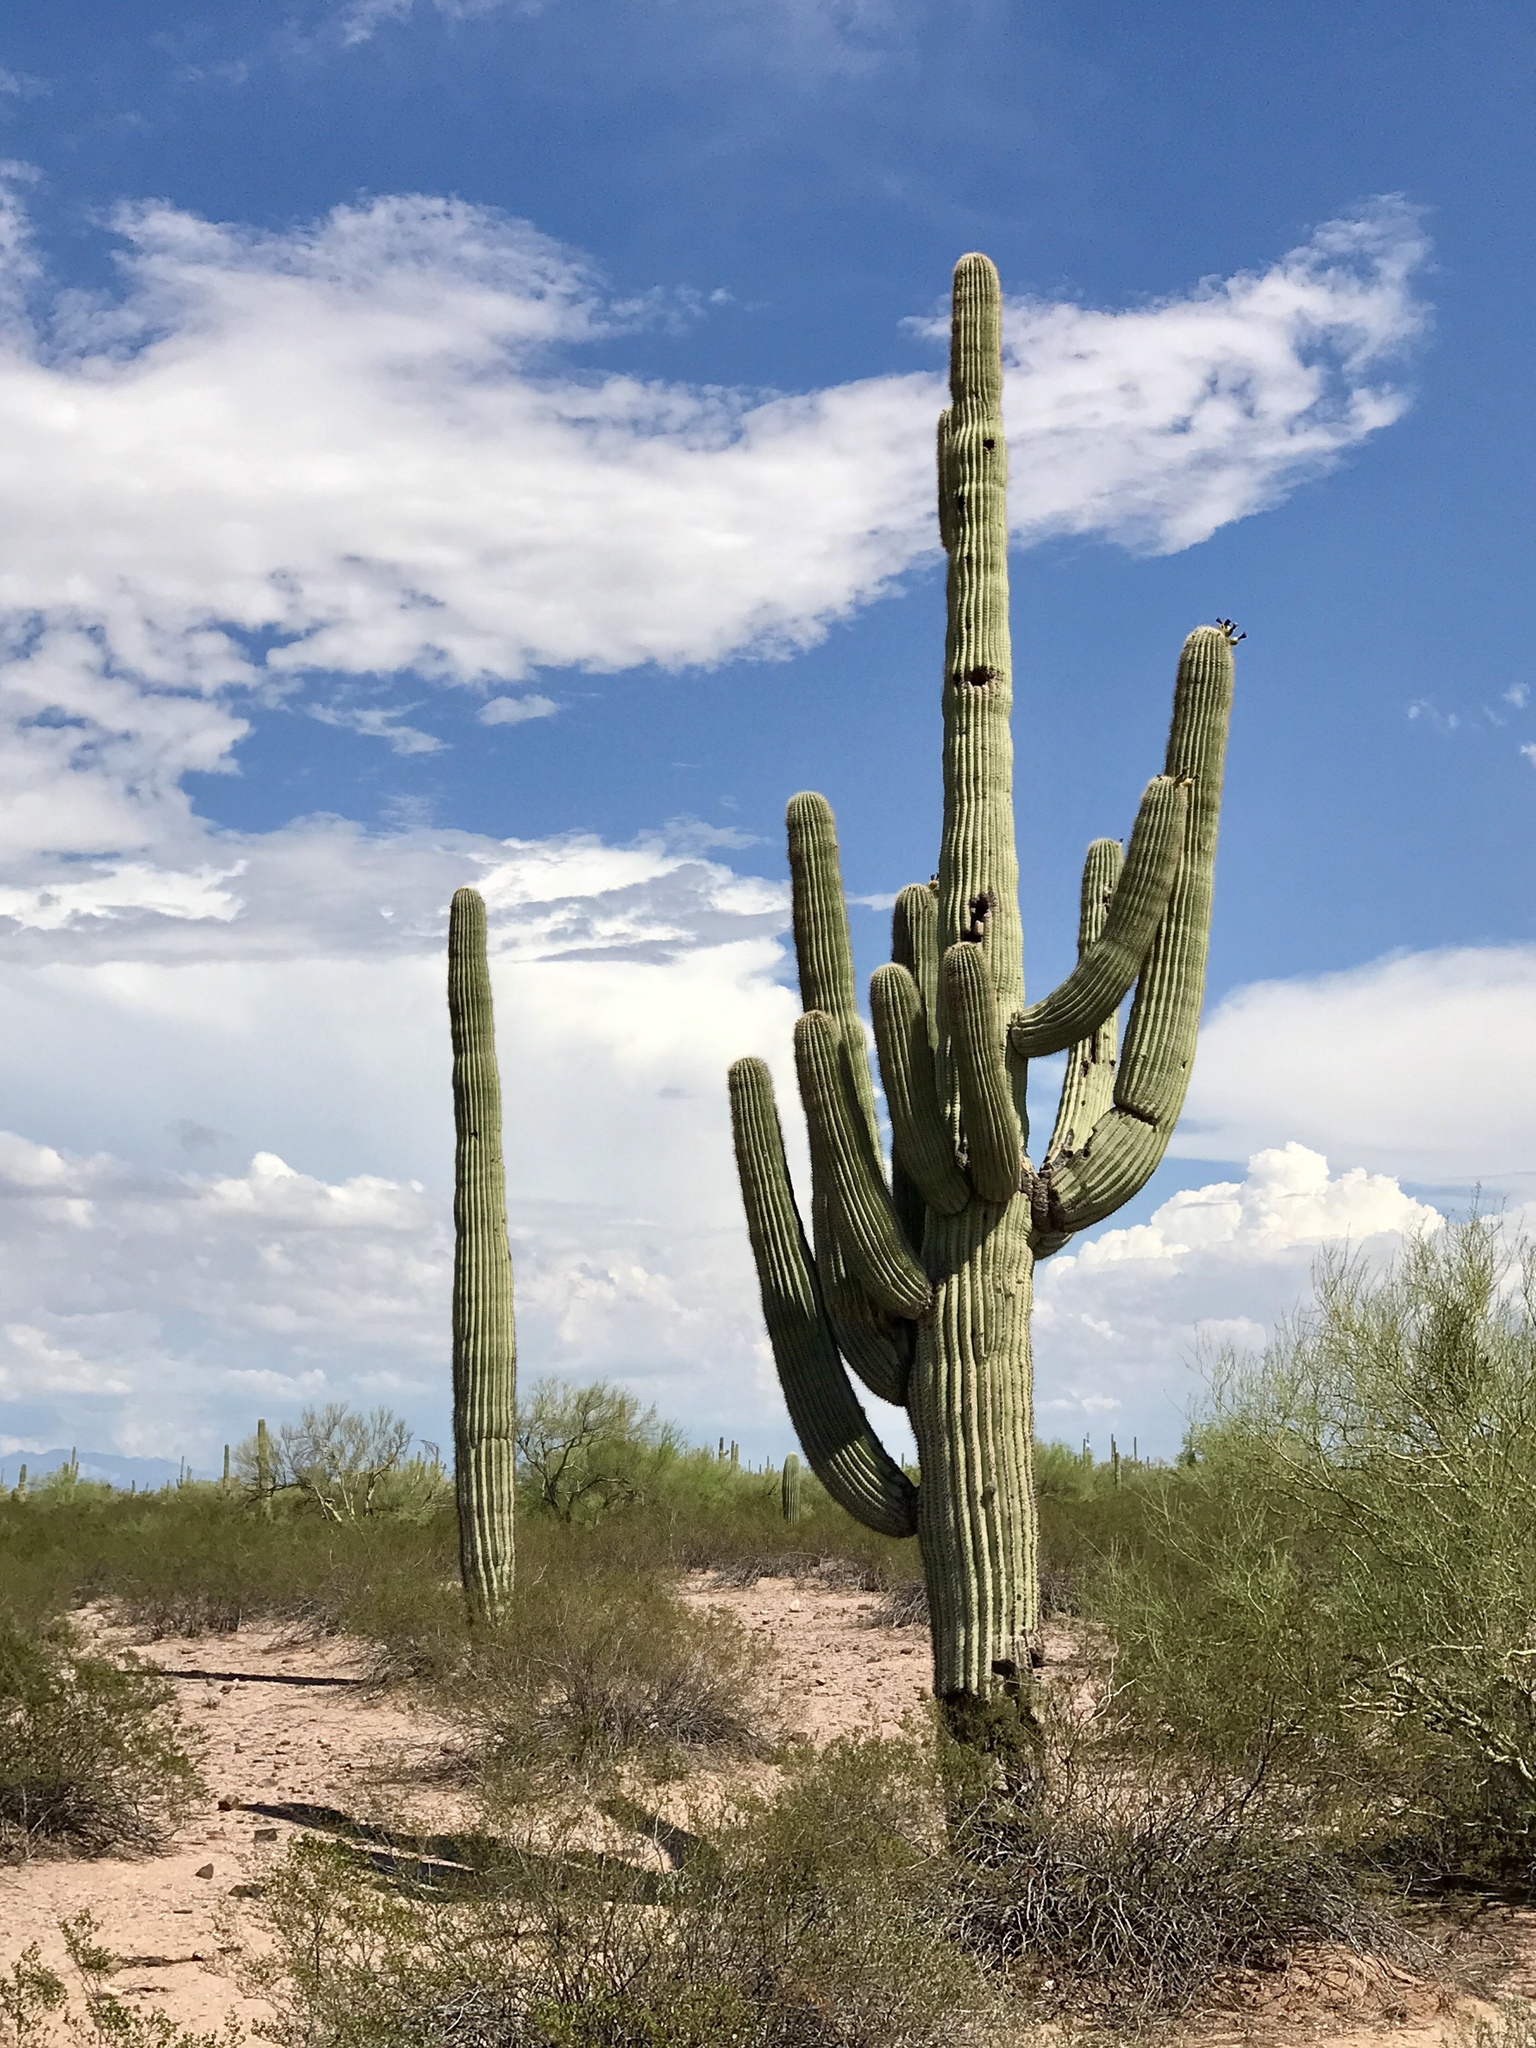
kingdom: Plantae
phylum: Tracheophyta
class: Magnoliopsida
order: Caryophyllales
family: Cactaceae
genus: Carnegiea
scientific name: Carnegiea gigantea
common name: Saguaro
